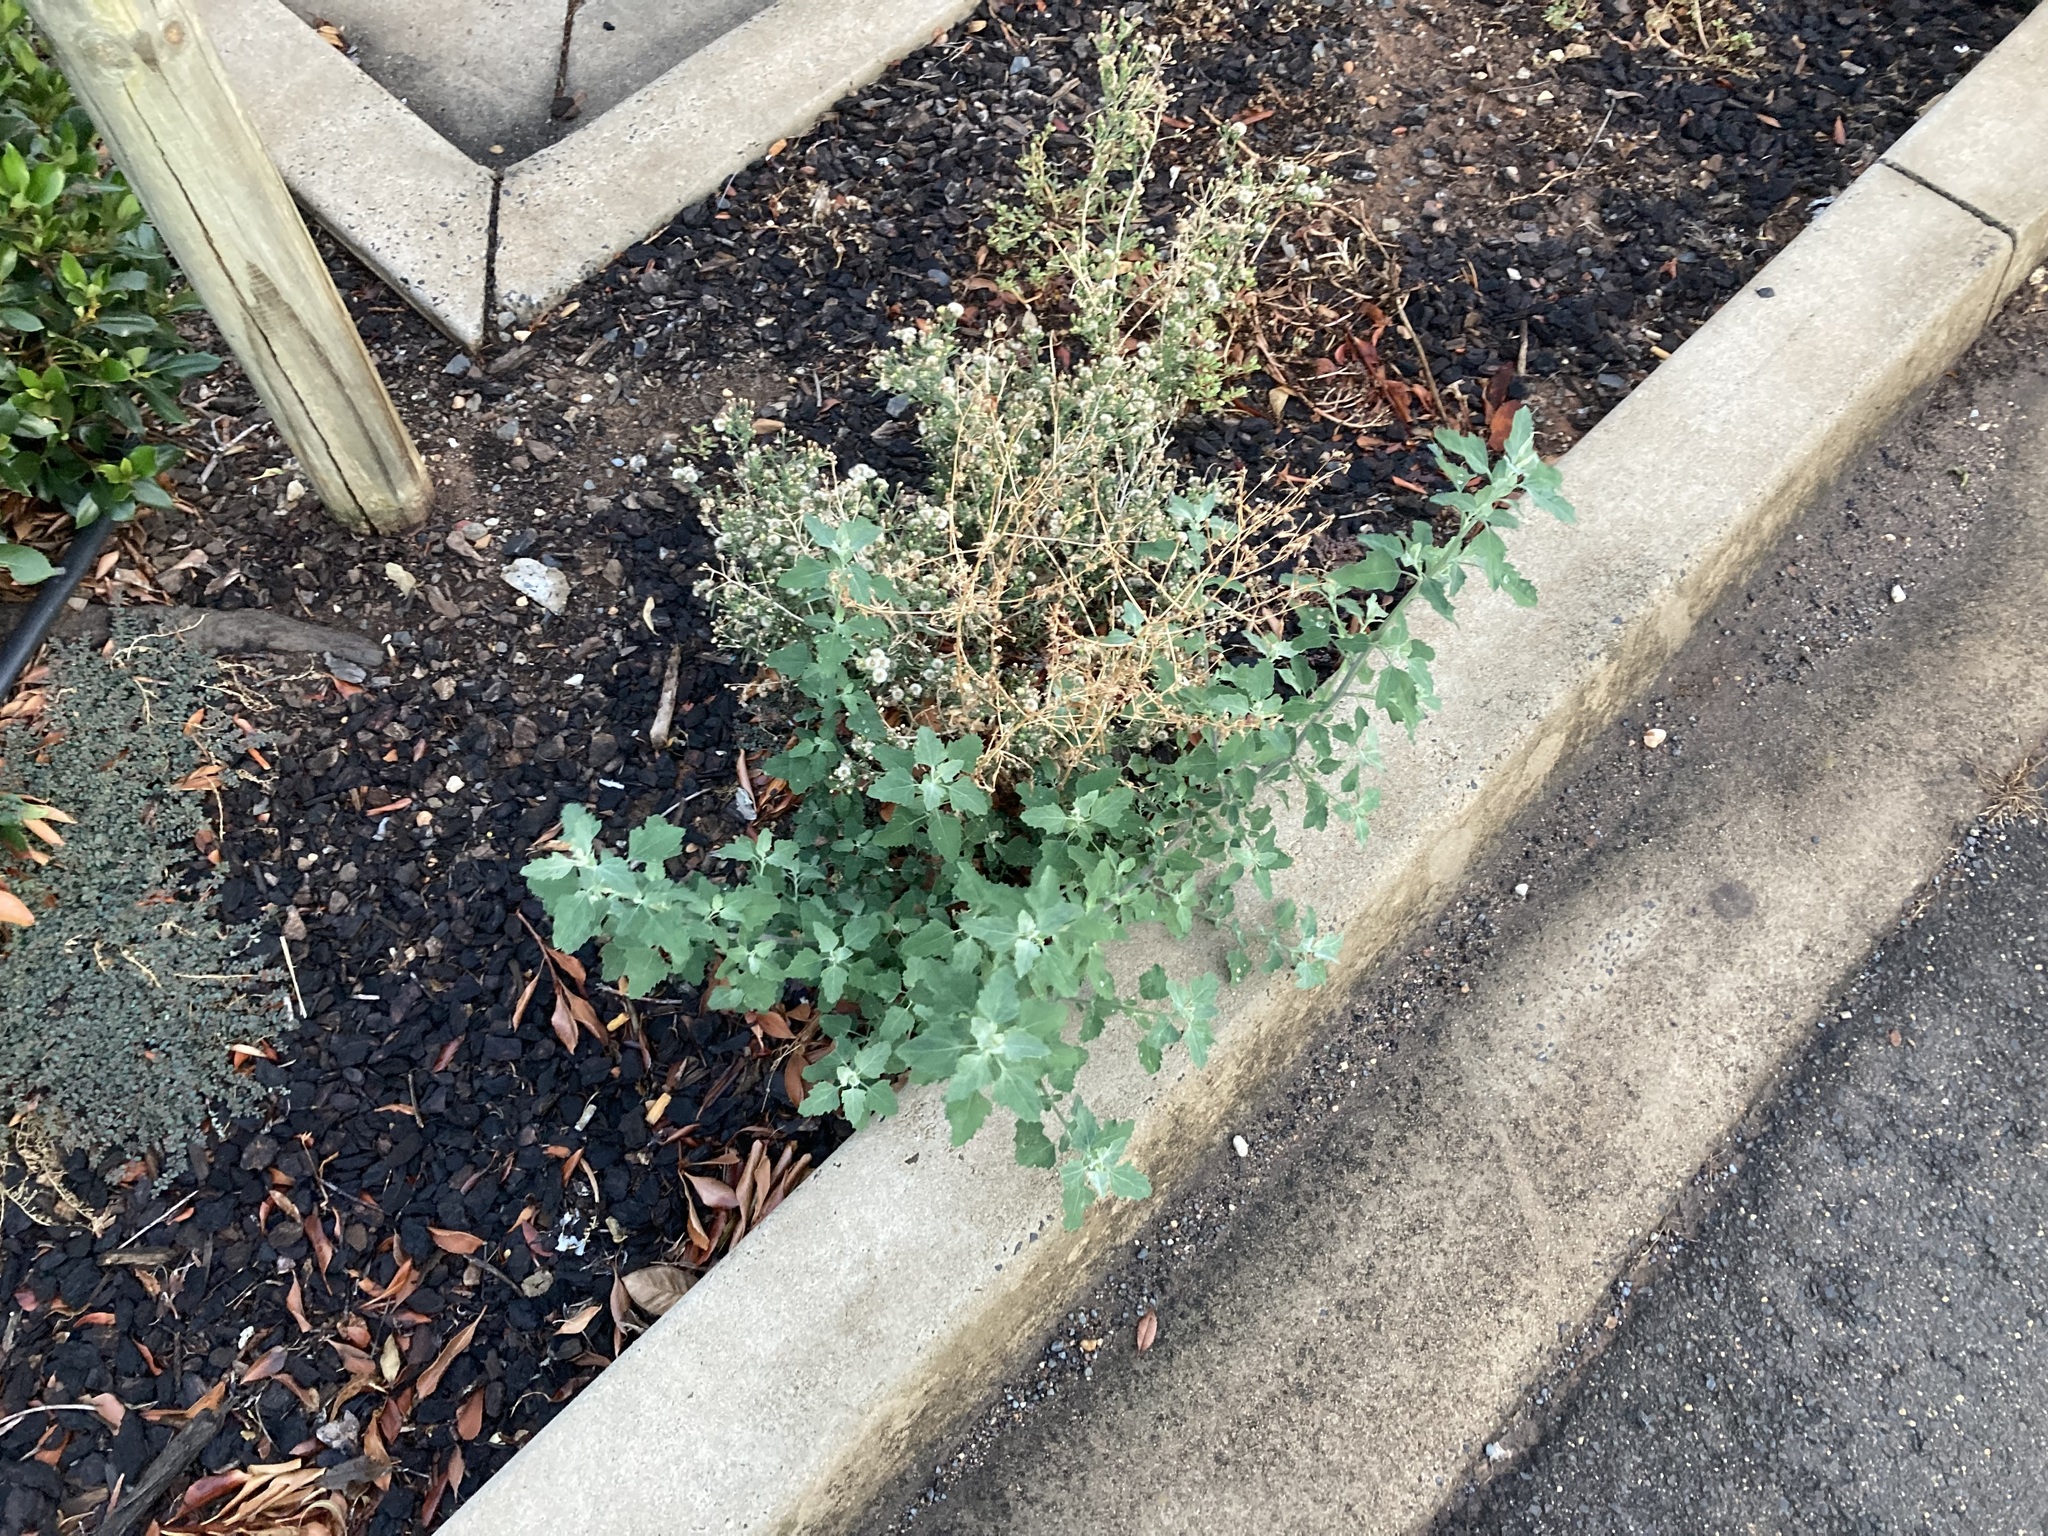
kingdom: Plantae
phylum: Tracheophyta
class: Magnoliopsida
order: Caryophyllales
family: Amaranthaceae
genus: Chenopodium
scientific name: Chenopodium album
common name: Fat-hen
